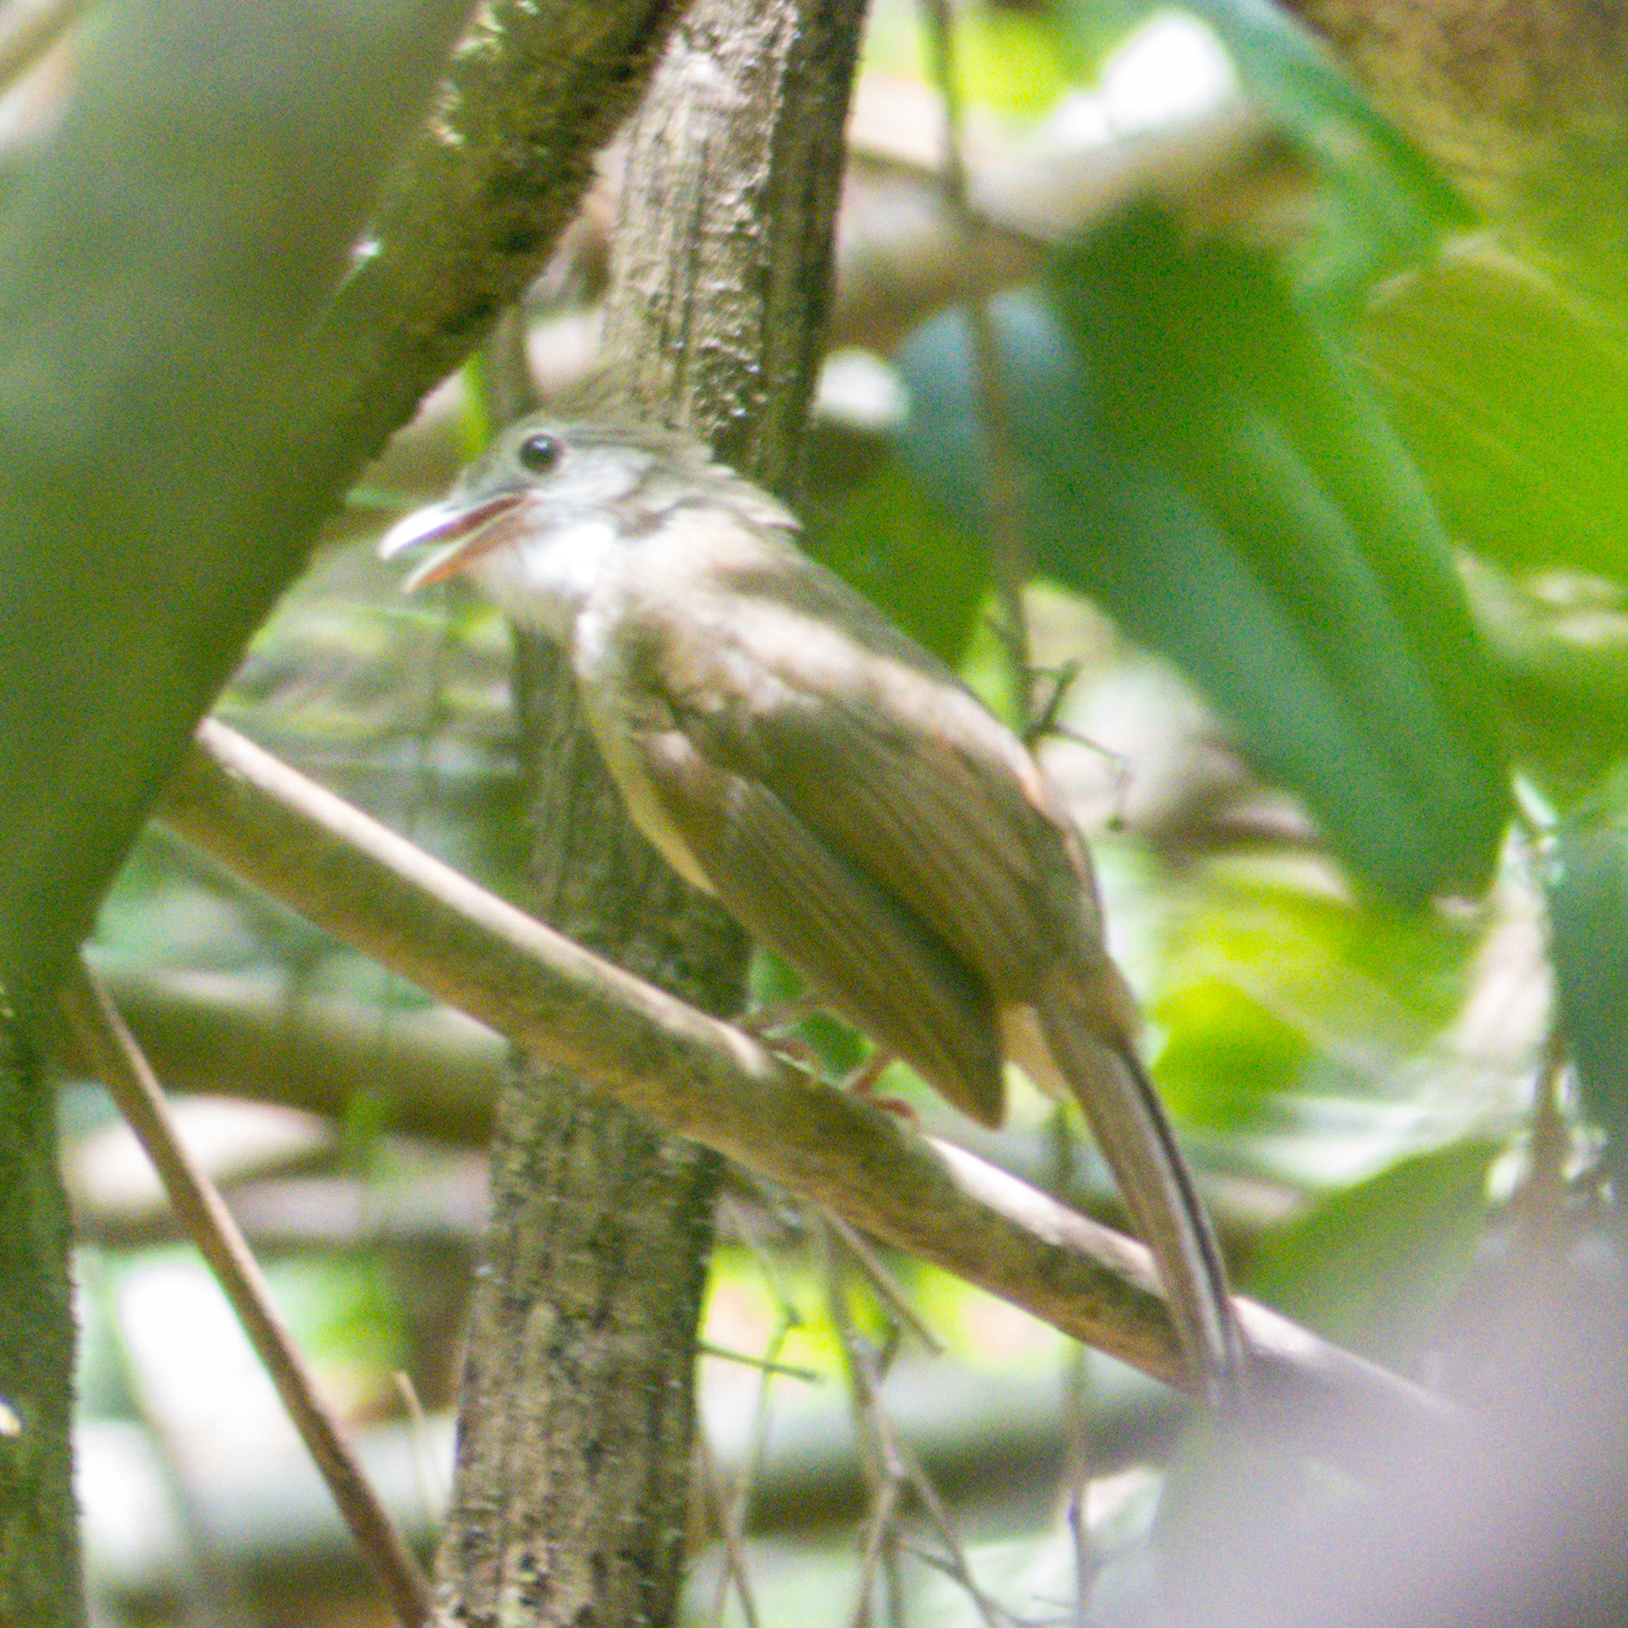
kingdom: Animalia
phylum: Chordata
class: Aves
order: Passeriformes
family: Pycnonotidae
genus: Alophoixus
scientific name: Alophoixus ochraceus
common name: Ochraceous bulbul
